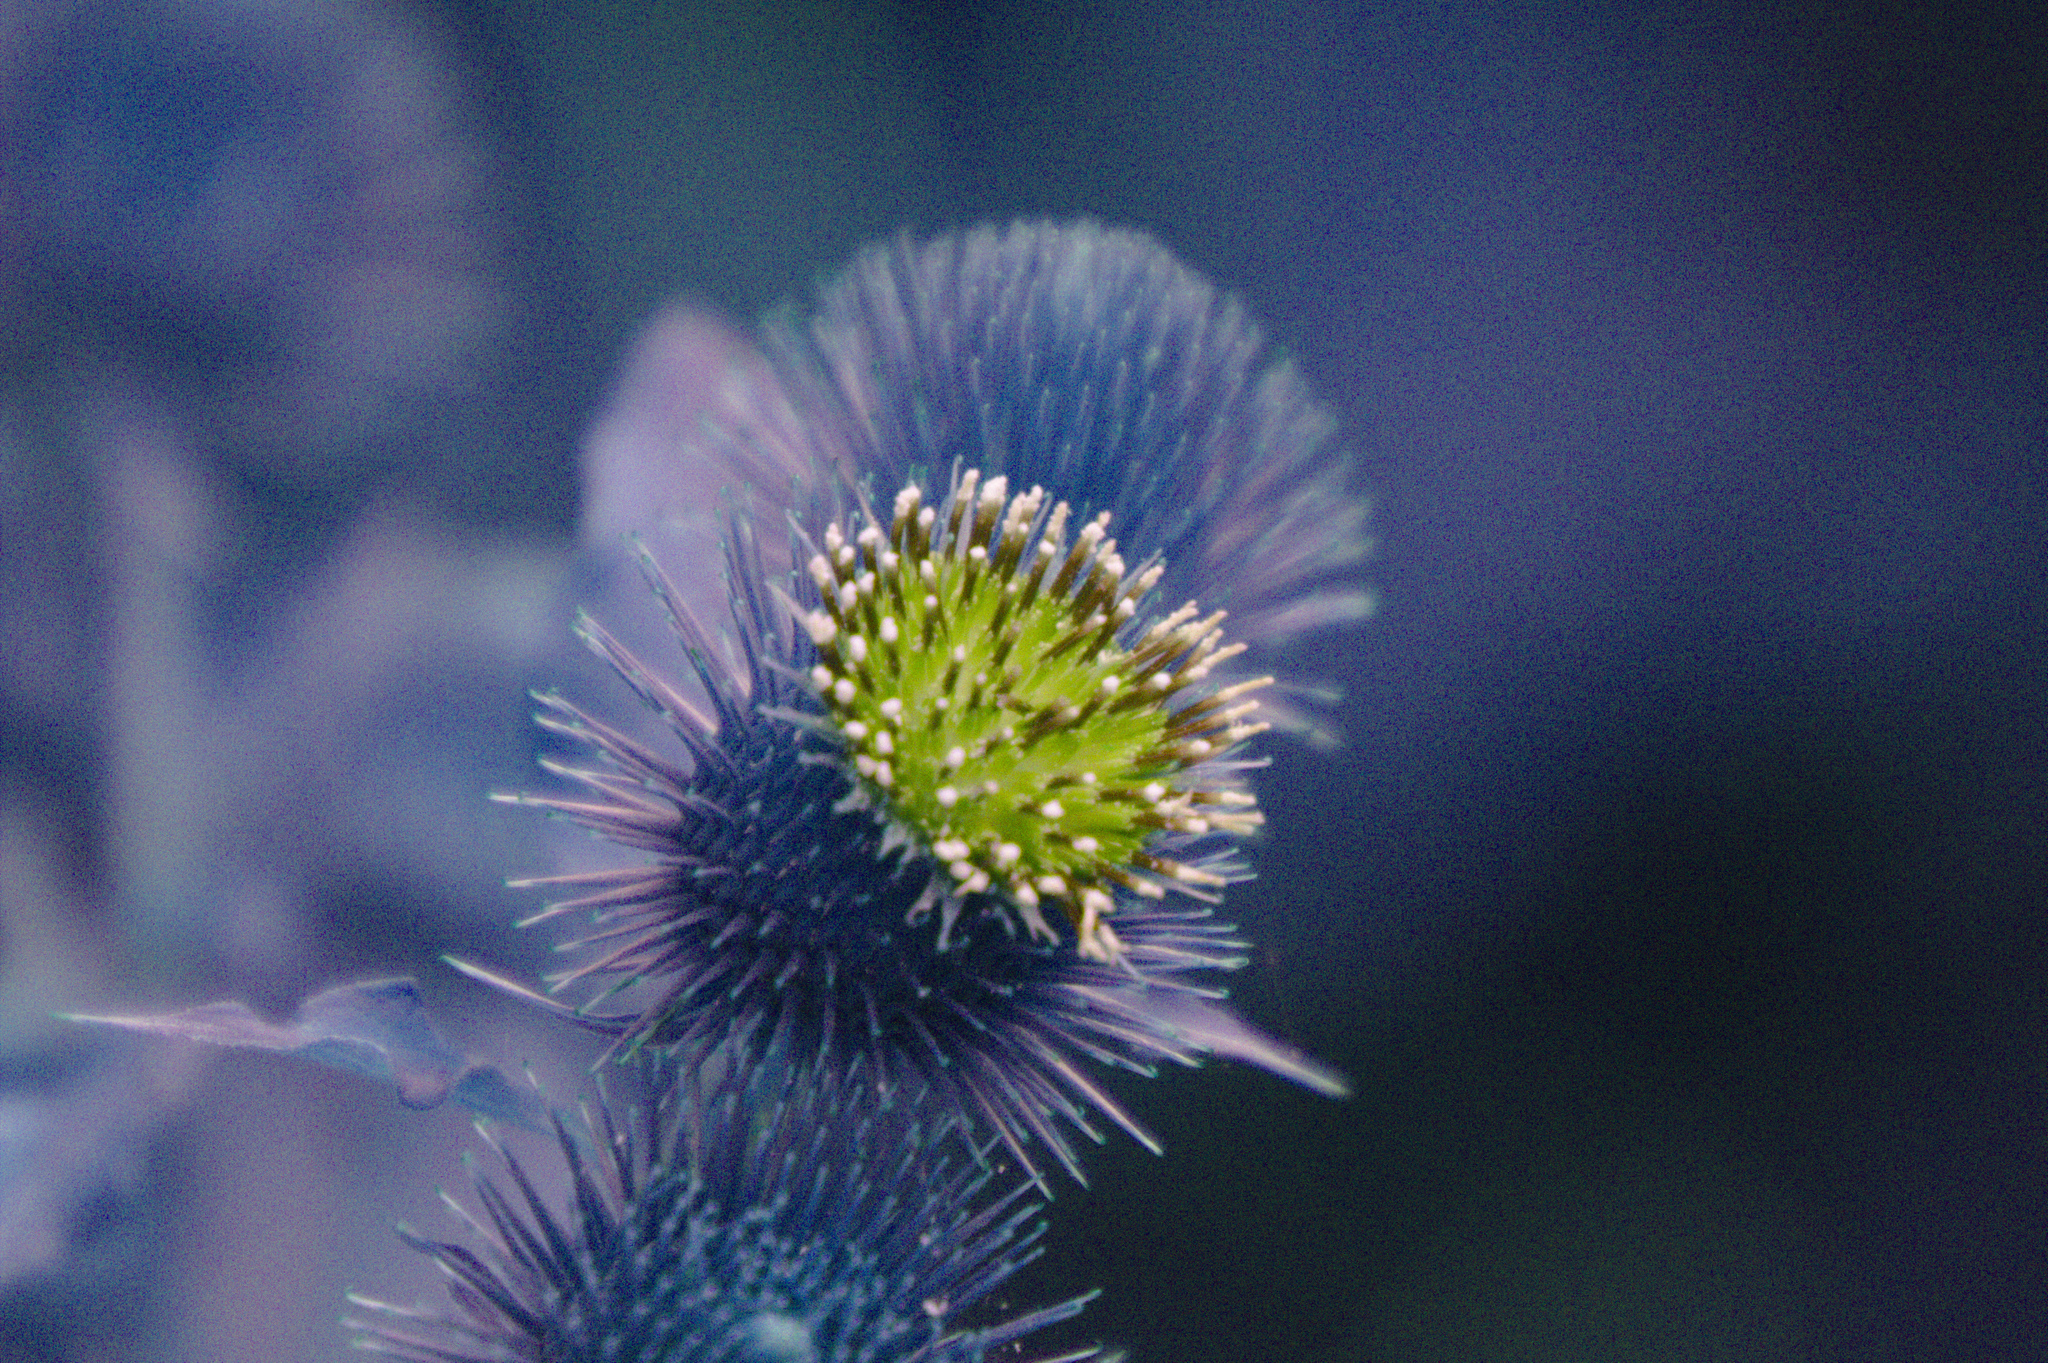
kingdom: Plantae
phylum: Tracheophyta
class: Magnoliopsida
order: Asterales
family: Asteraceae
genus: Arctium
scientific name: Arctium lappa
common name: Greater burdock
